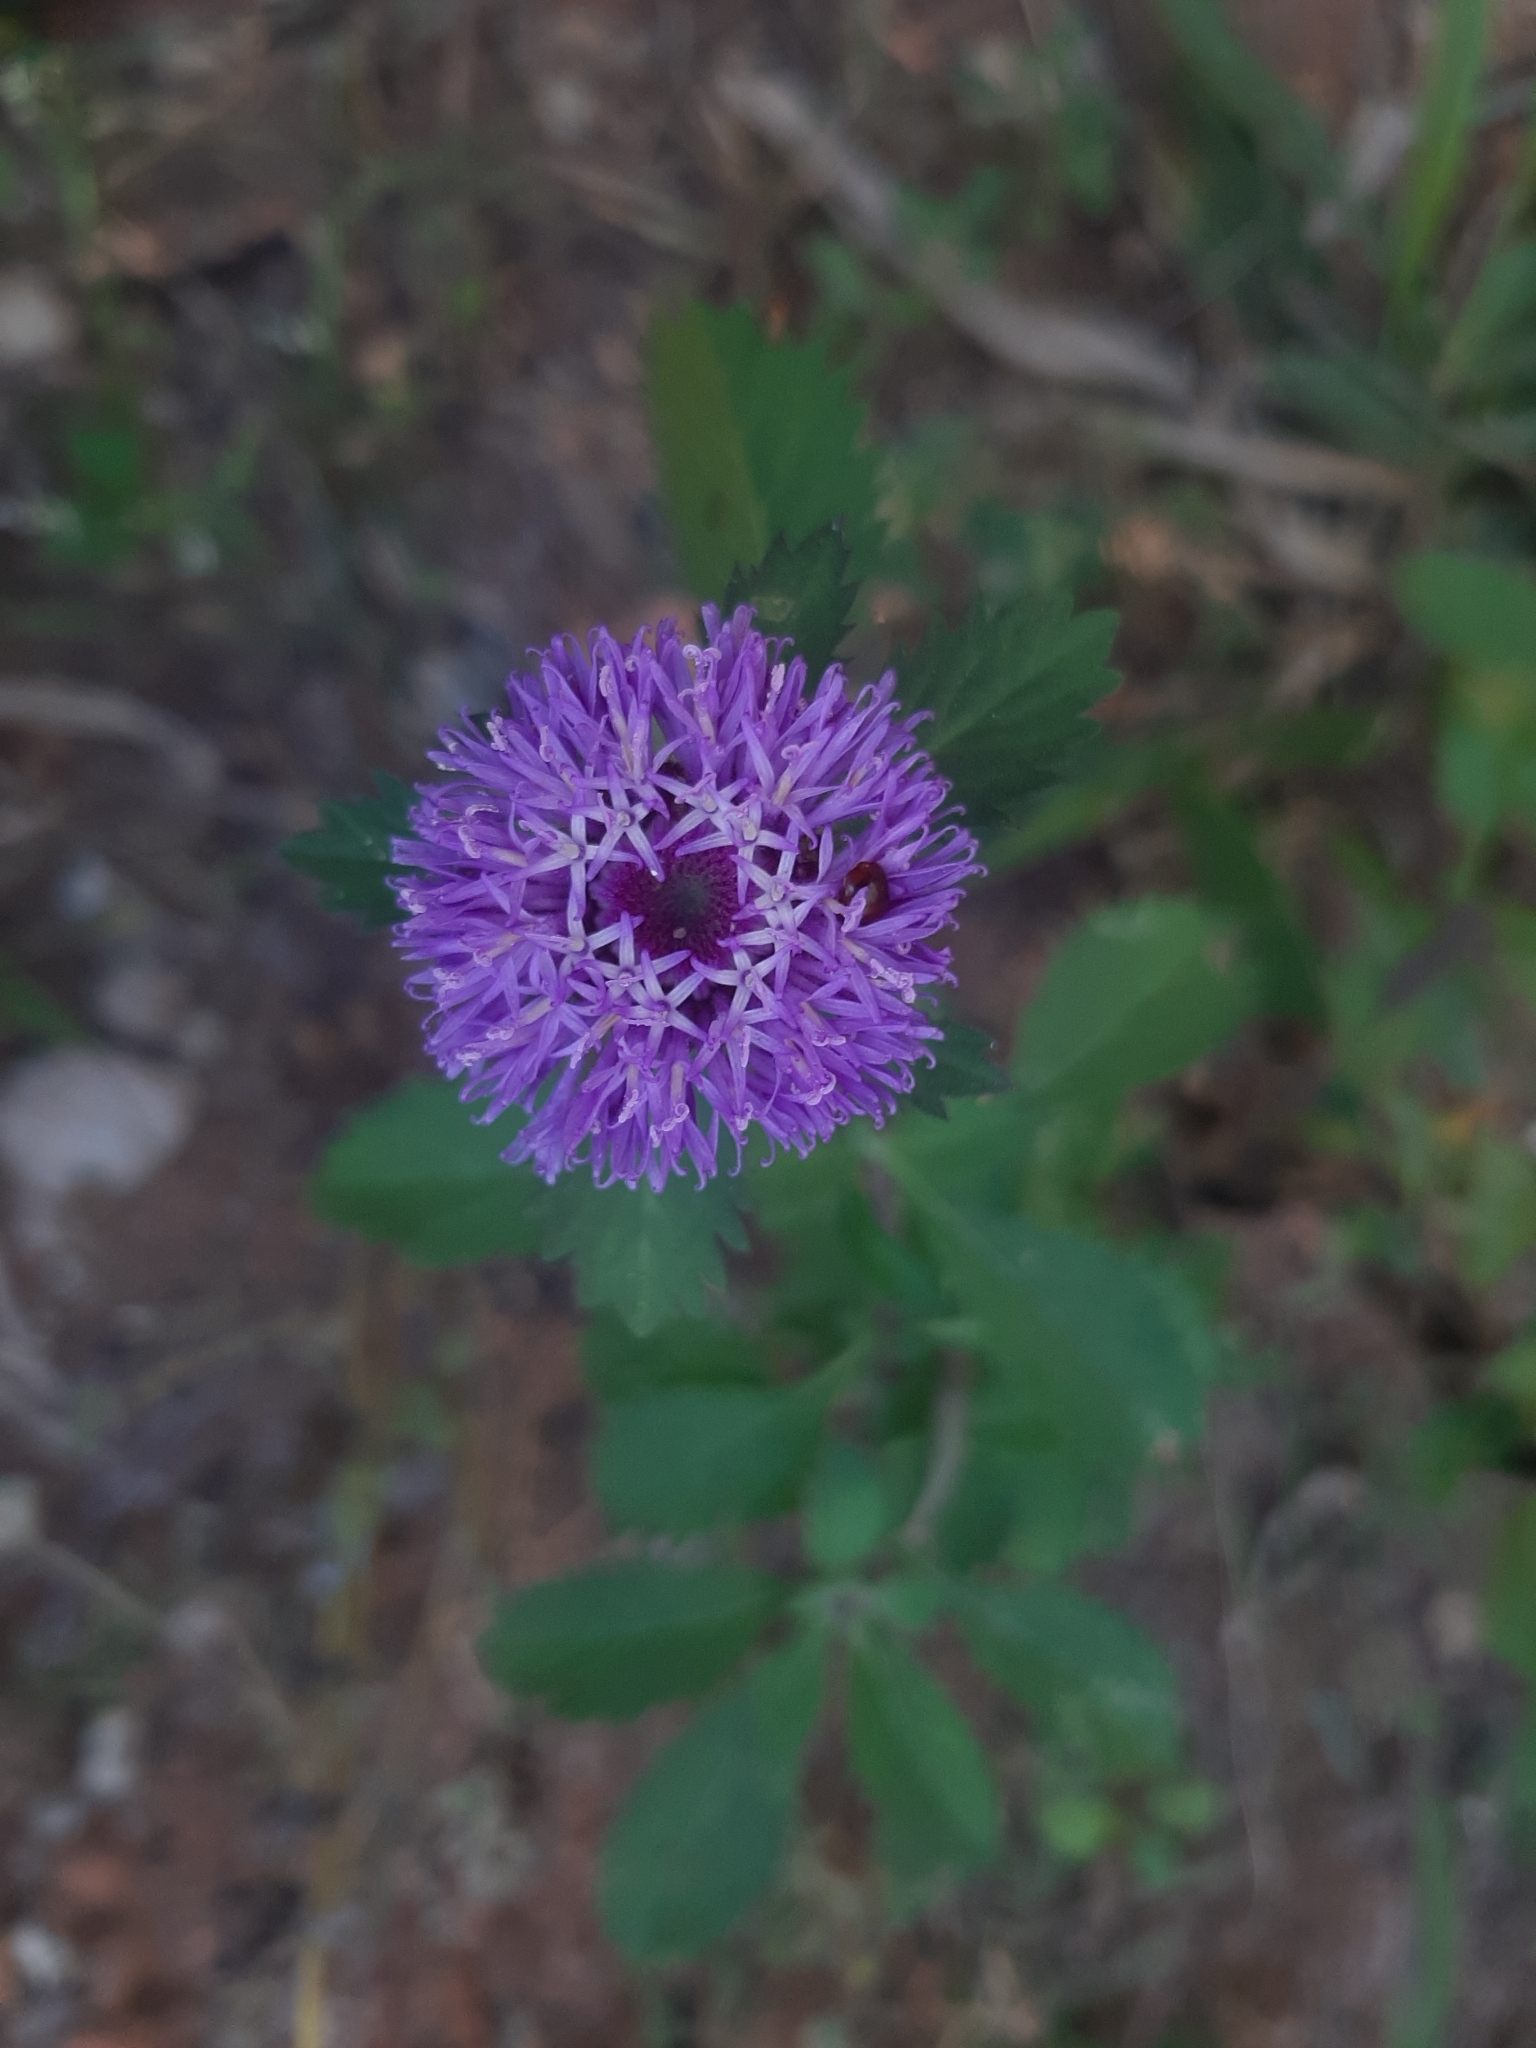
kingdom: Plantae
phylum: Tracheophyta
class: Magnoliopsida
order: Asterales
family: Asteraceae
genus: Centratherum
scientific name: Centratherum punctatum
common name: Larkdaisy
